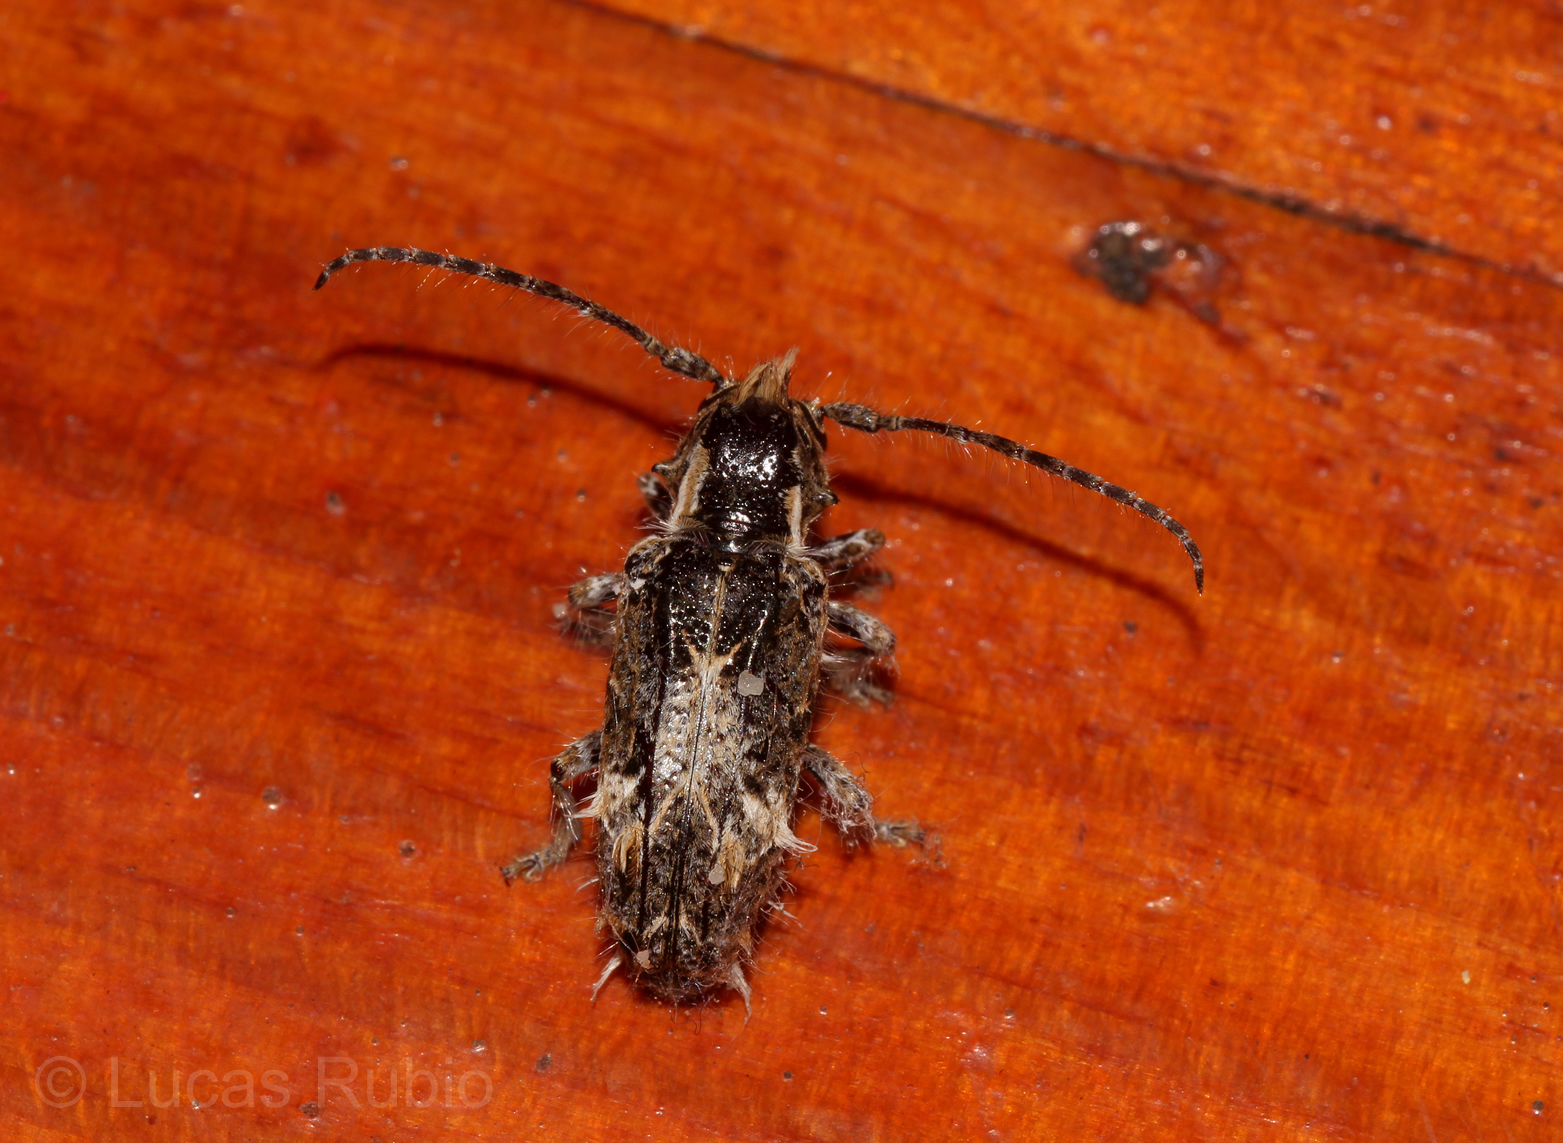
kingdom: Animalia
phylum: Arthropoda
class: Insecta
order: Coleoptera
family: Cerambycidae
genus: Desmiphora
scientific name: Desmiphora hirticollis
